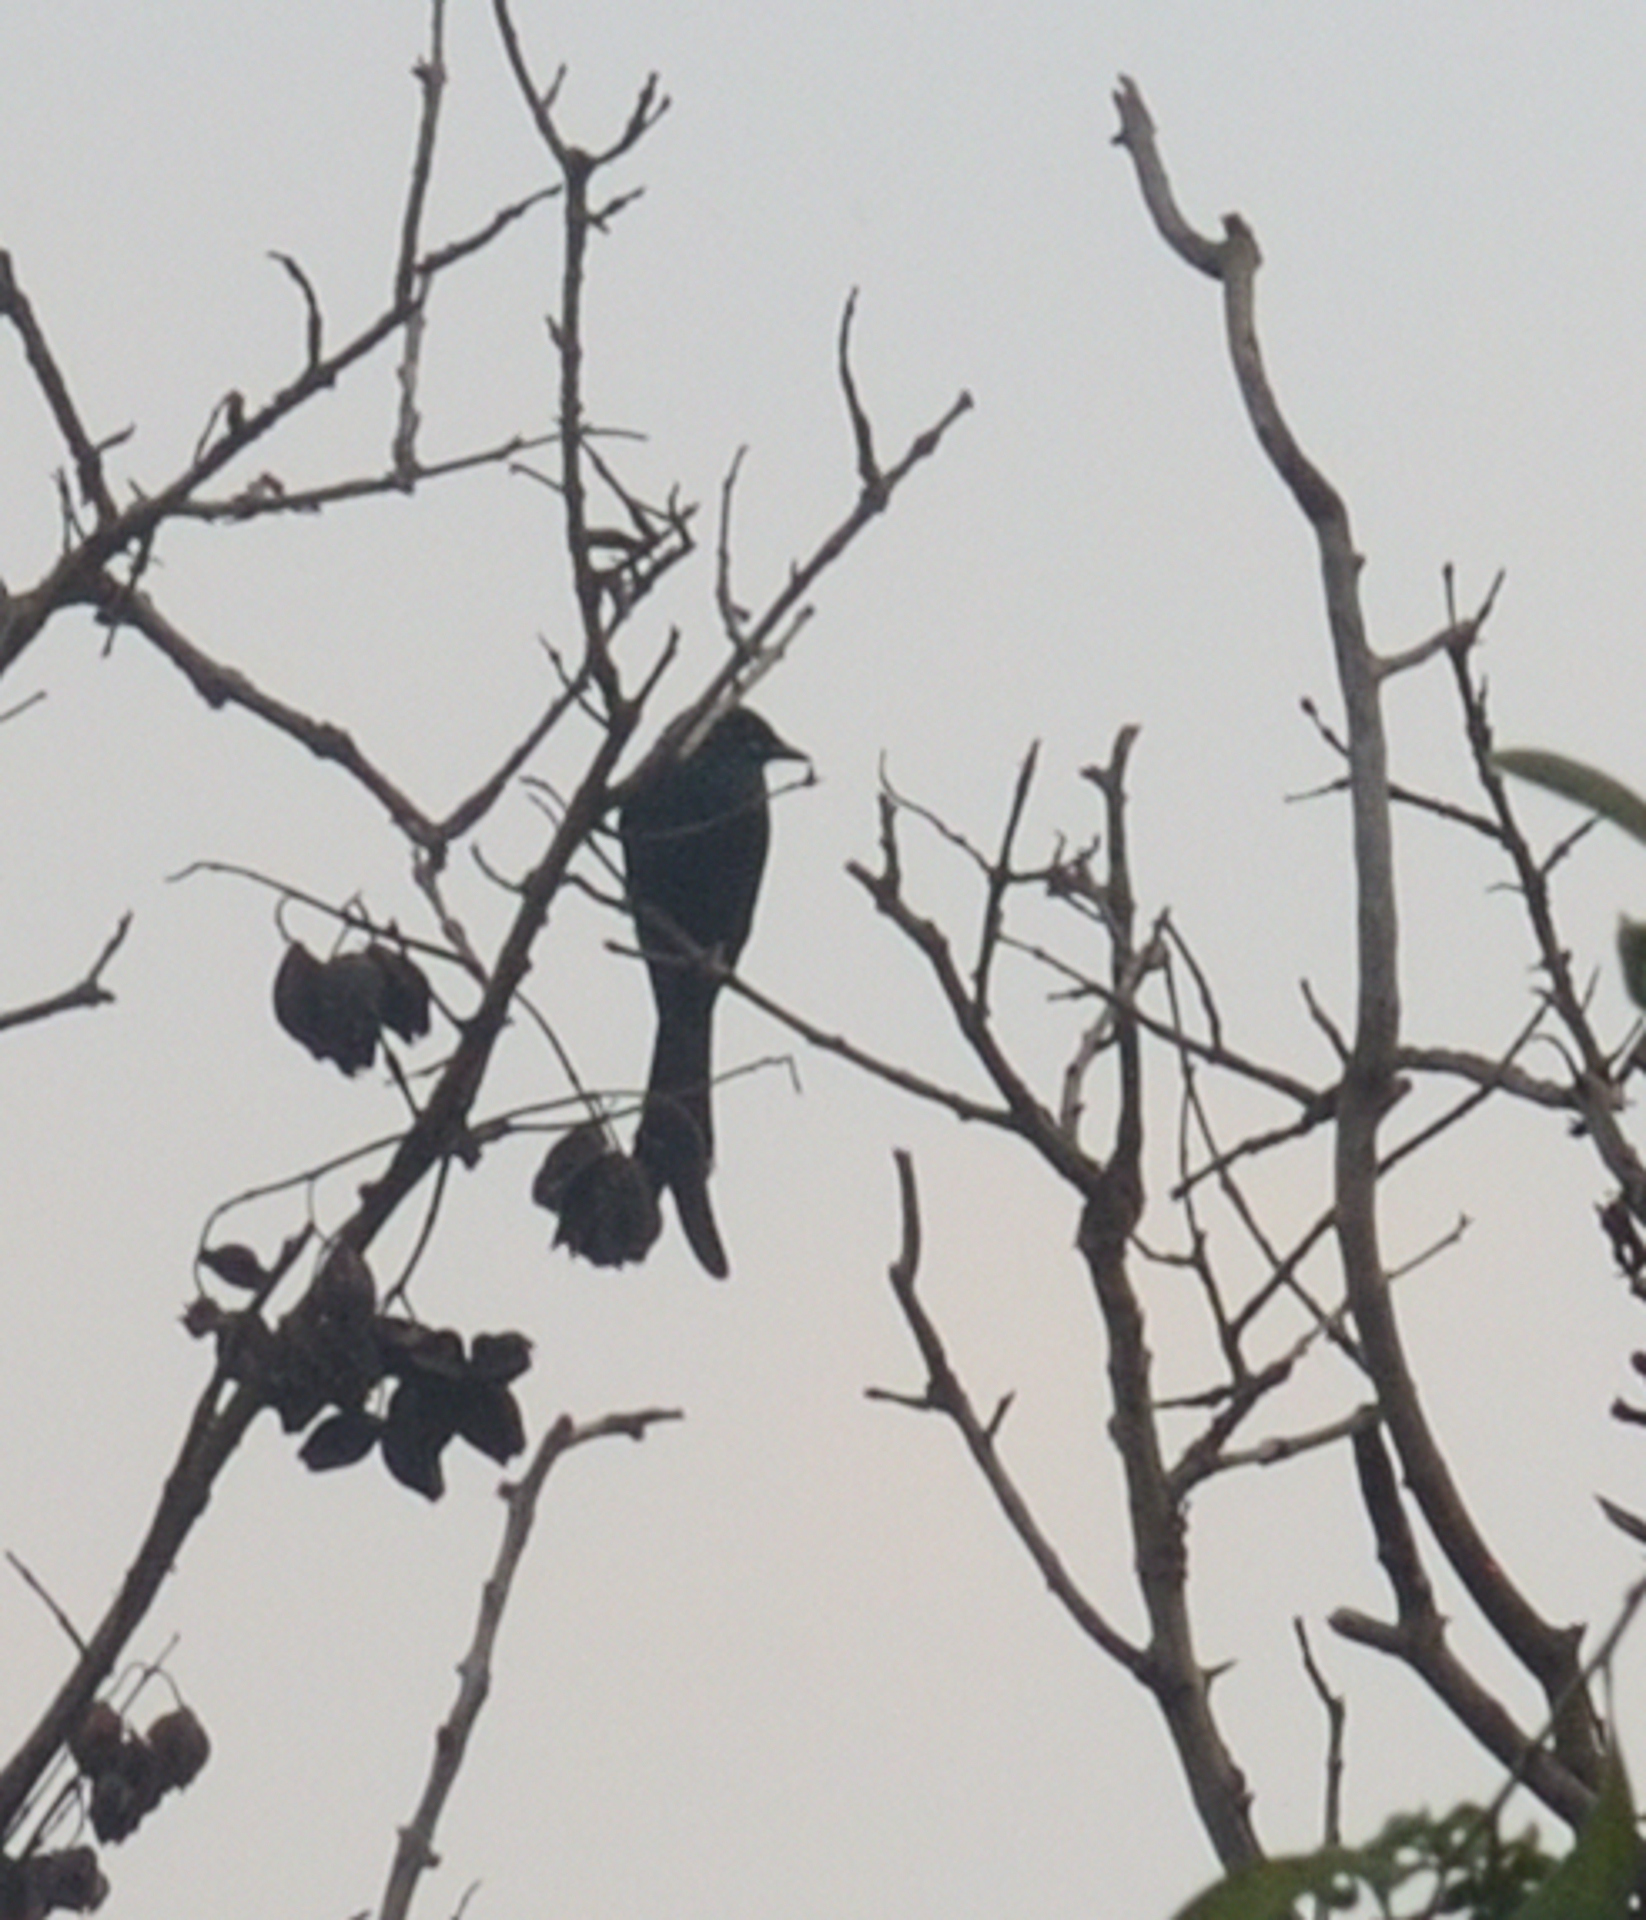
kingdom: Animalia
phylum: Chordata
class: Aves
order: Passeriformes
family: Dicruridae
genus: Dicrurus
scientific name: Dicrurus macrocercus
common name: Black drongo
